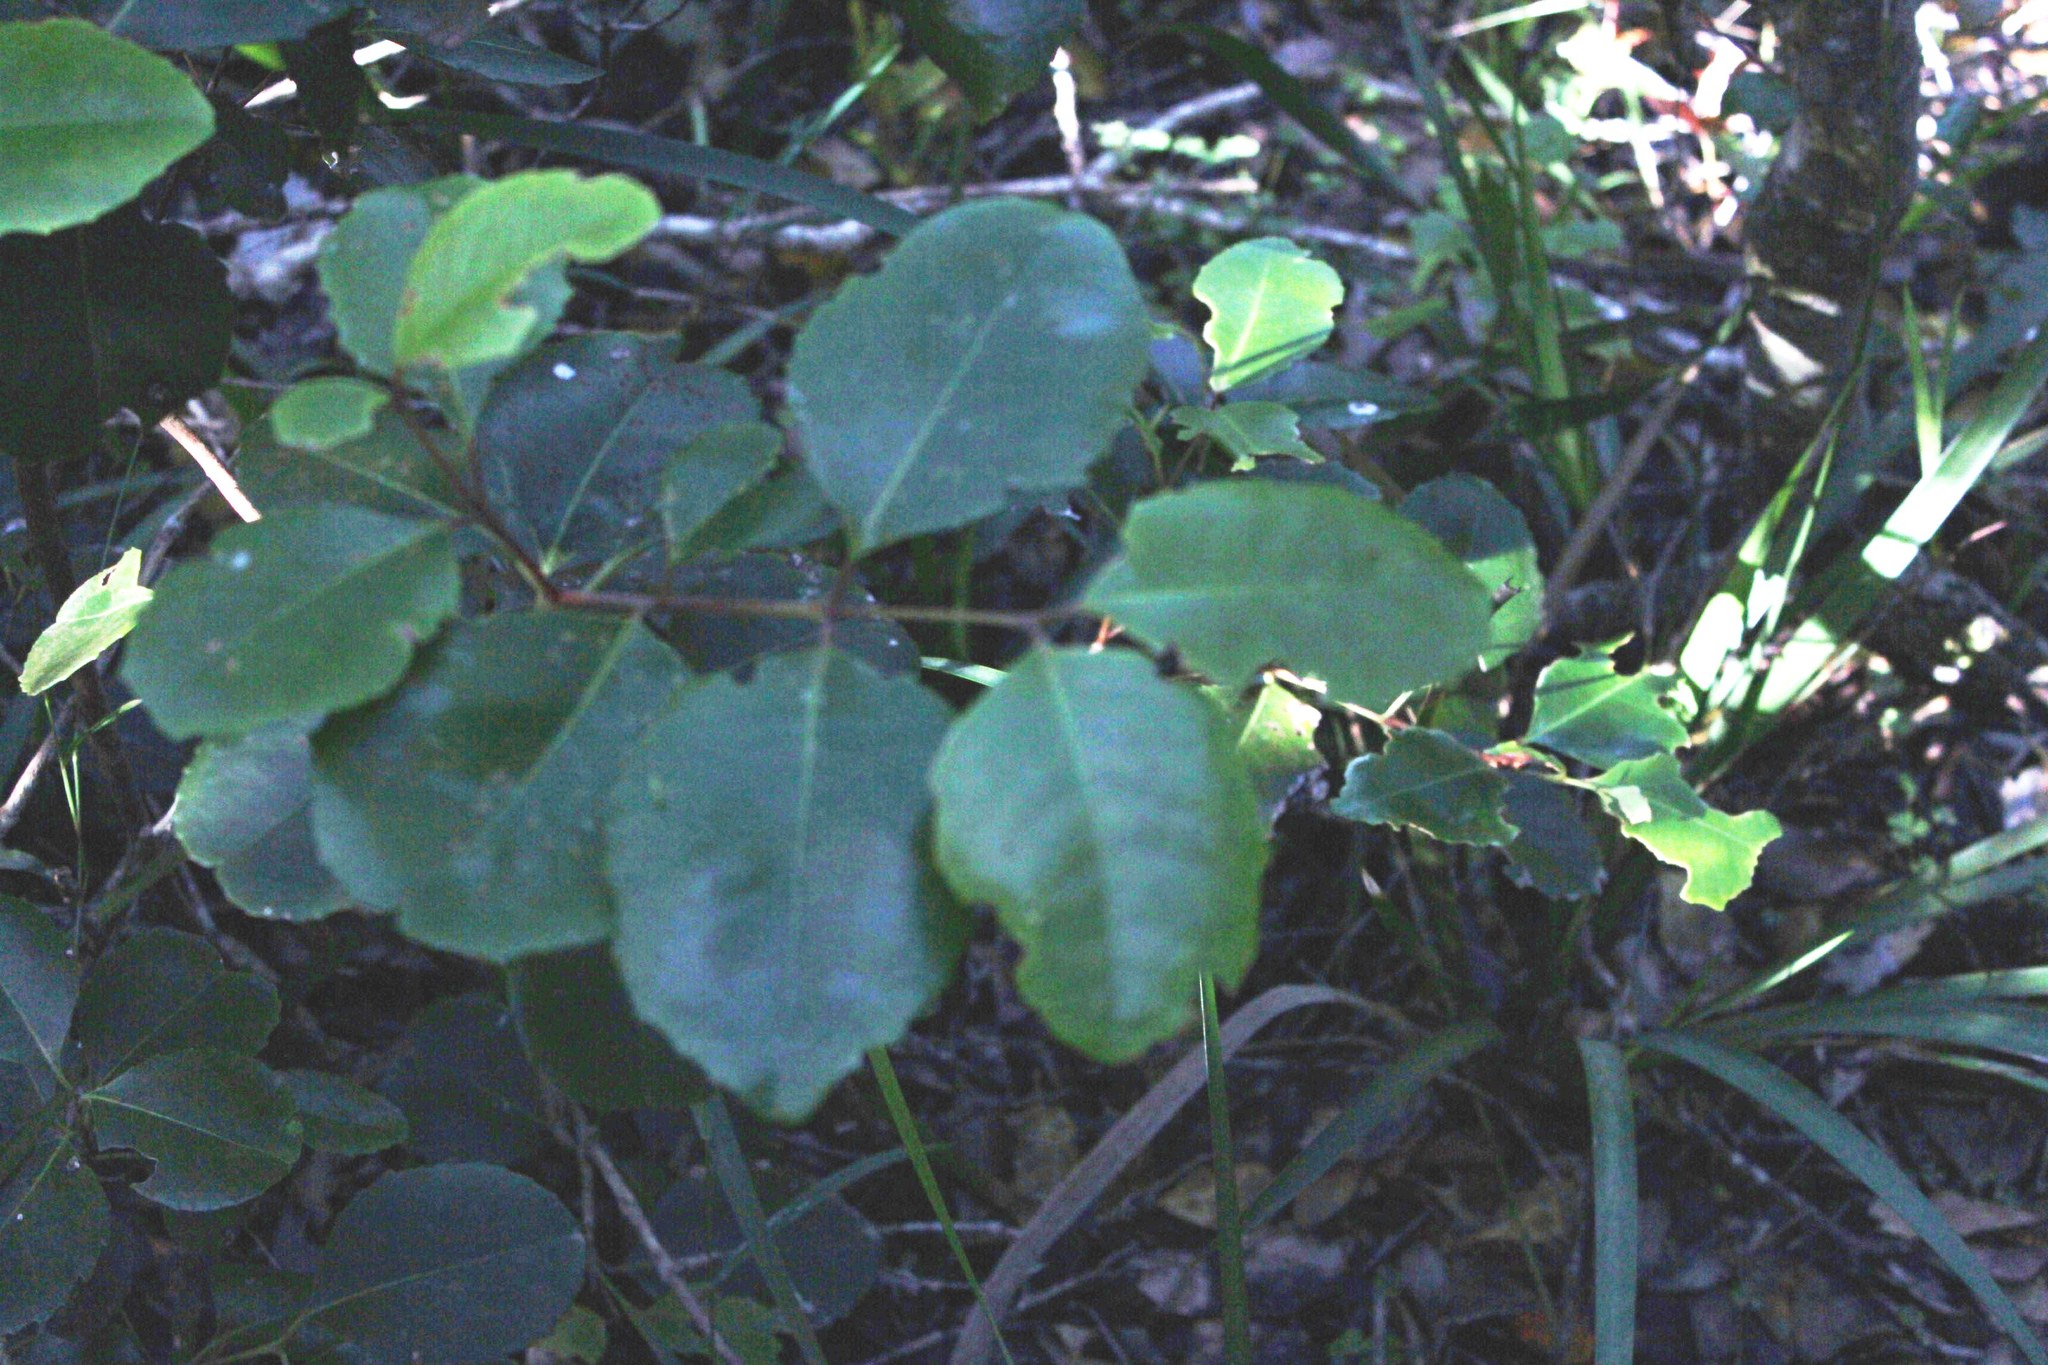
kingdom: Plantae
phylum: Tracheophyta
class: Magnoliopsida
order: Celastrales
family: Celastraceae
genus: Cassine
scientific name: Cassine peragua
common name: Cape saffron
